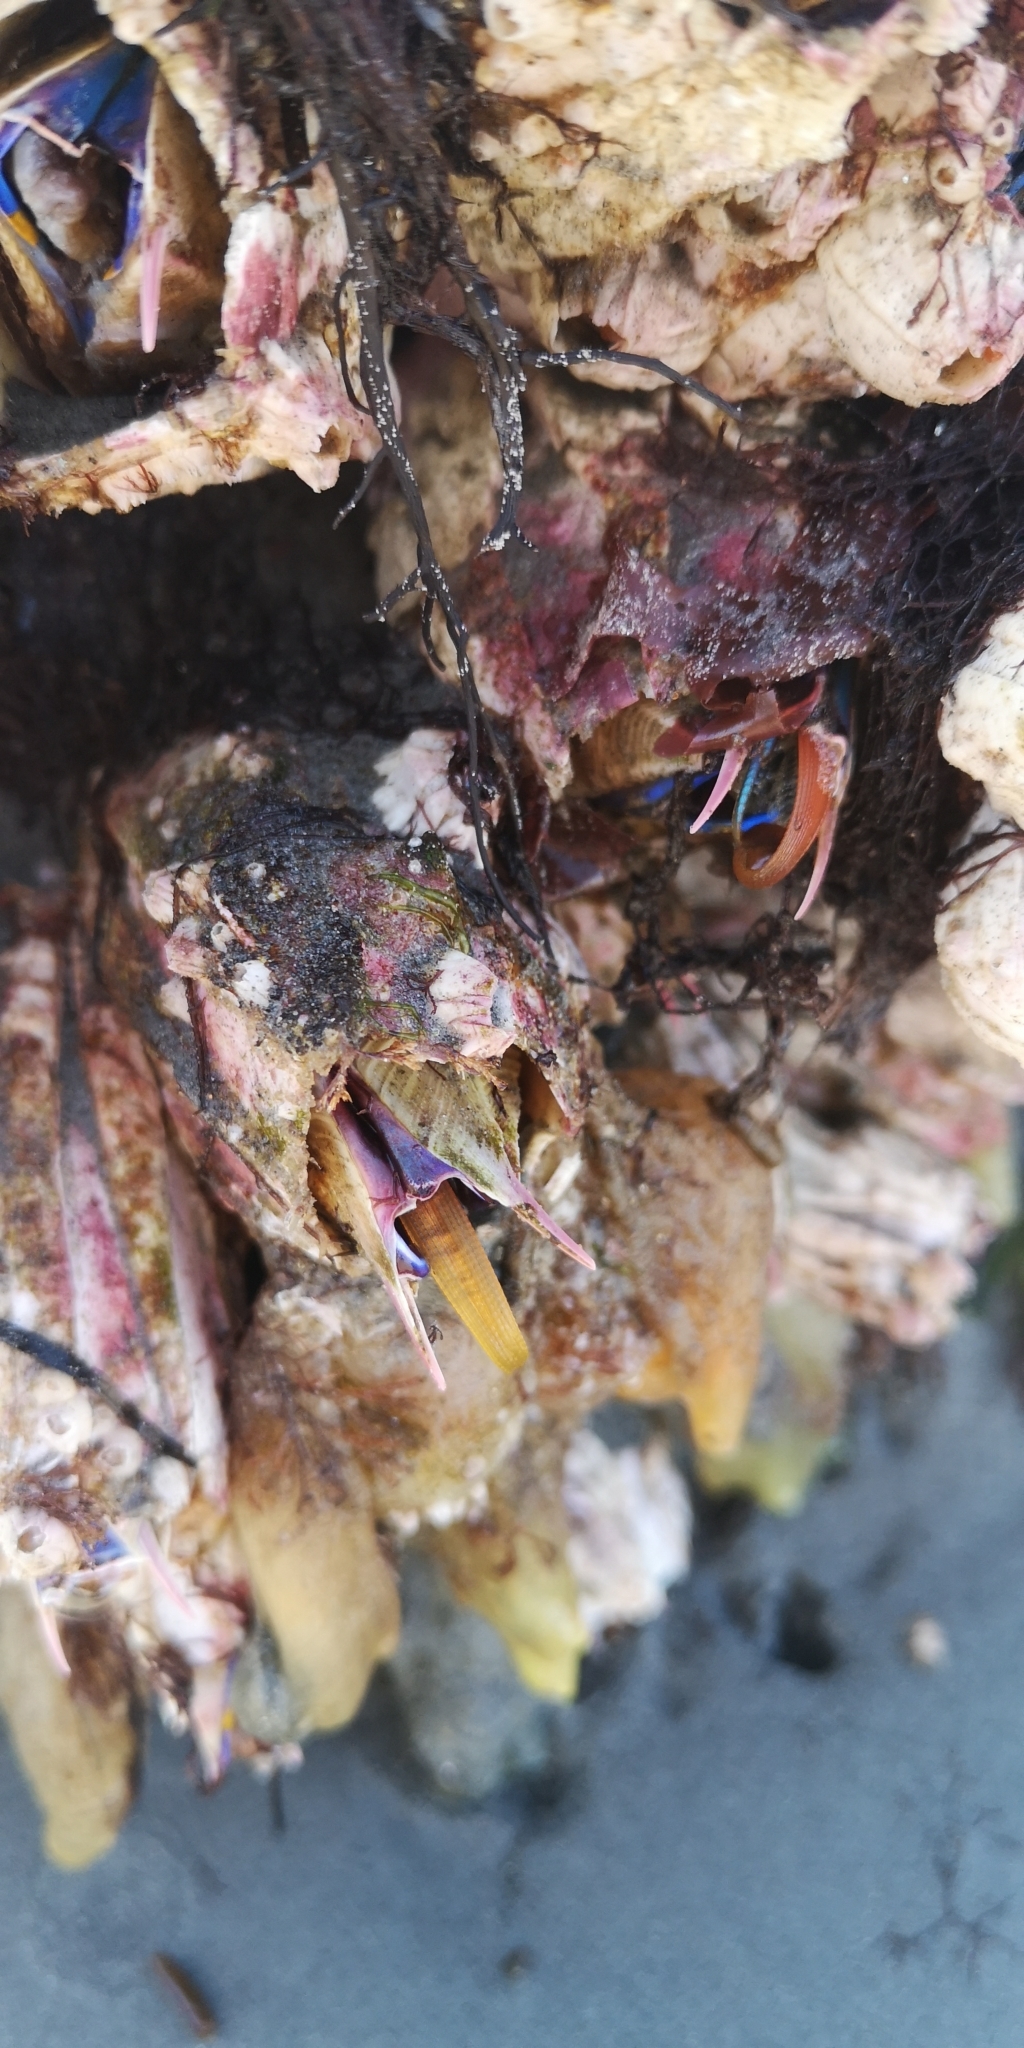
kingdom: Animalia
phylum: Arthropoda
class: Maxillopoda
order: Sessilia
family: Balanidae
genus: Austromegabalanus
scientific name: Austromegabalanus psittacus
